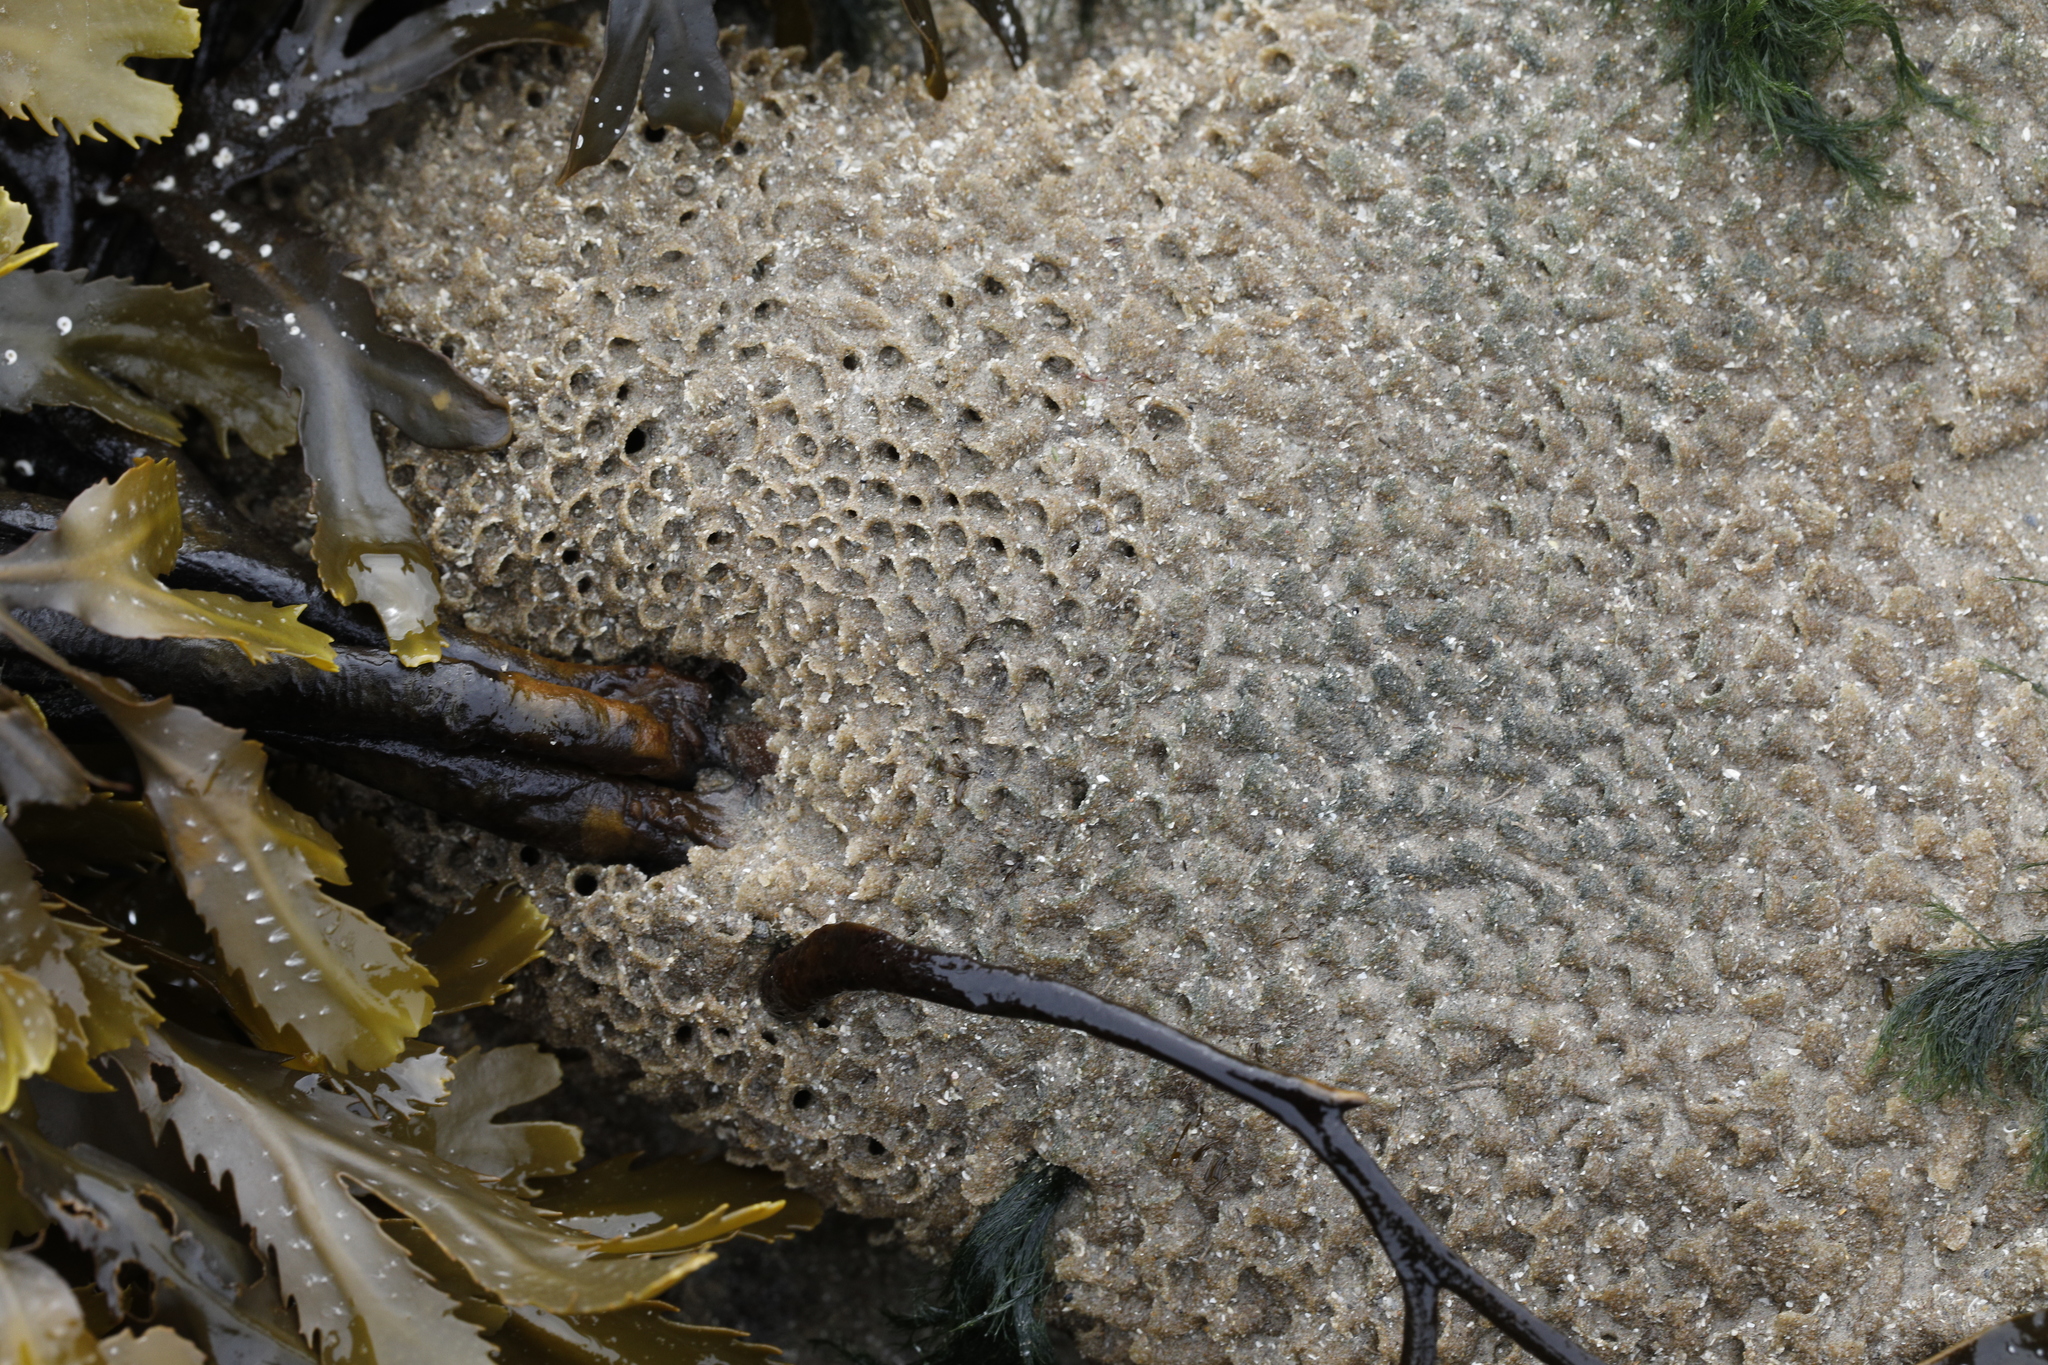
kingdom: Animalia
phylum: Annelida
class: Polychaeta
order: Sabellida
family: Sabellariidae
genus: Sabellaria
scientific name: Sabellaria alveolata
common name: Honeycomb worm
